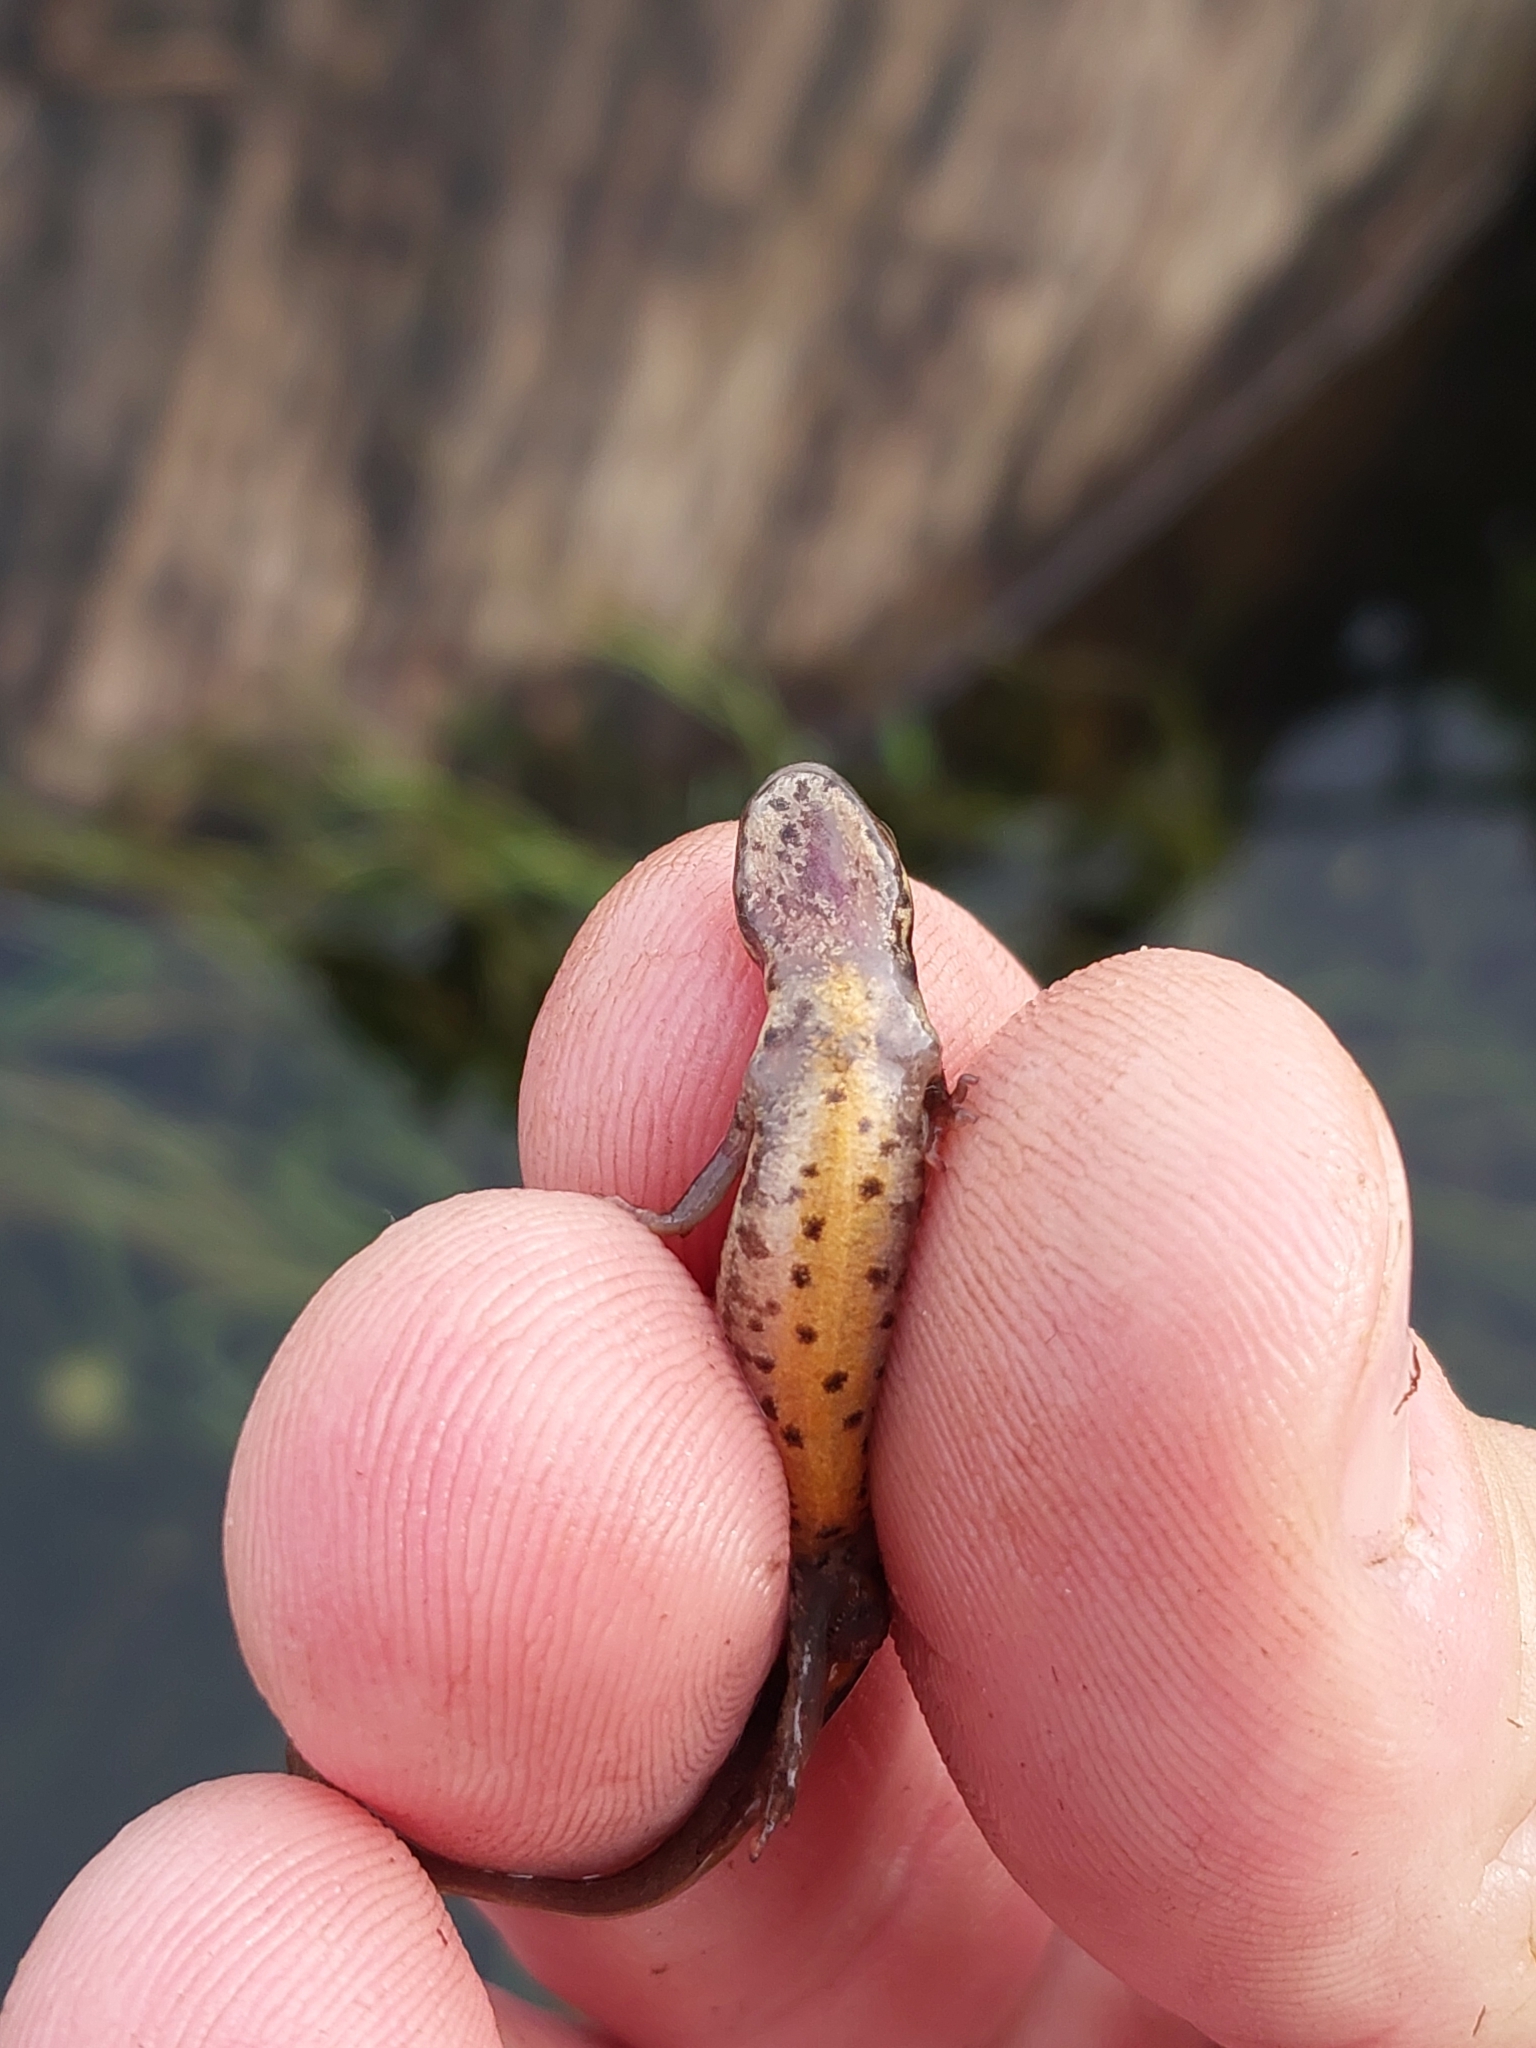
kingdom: Animalia
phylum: Chordata
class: Amphibia
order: Caudata
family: Salamandridae
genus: Lissotriton
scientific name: Lissotriton vulgaris
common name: Smooth newt
